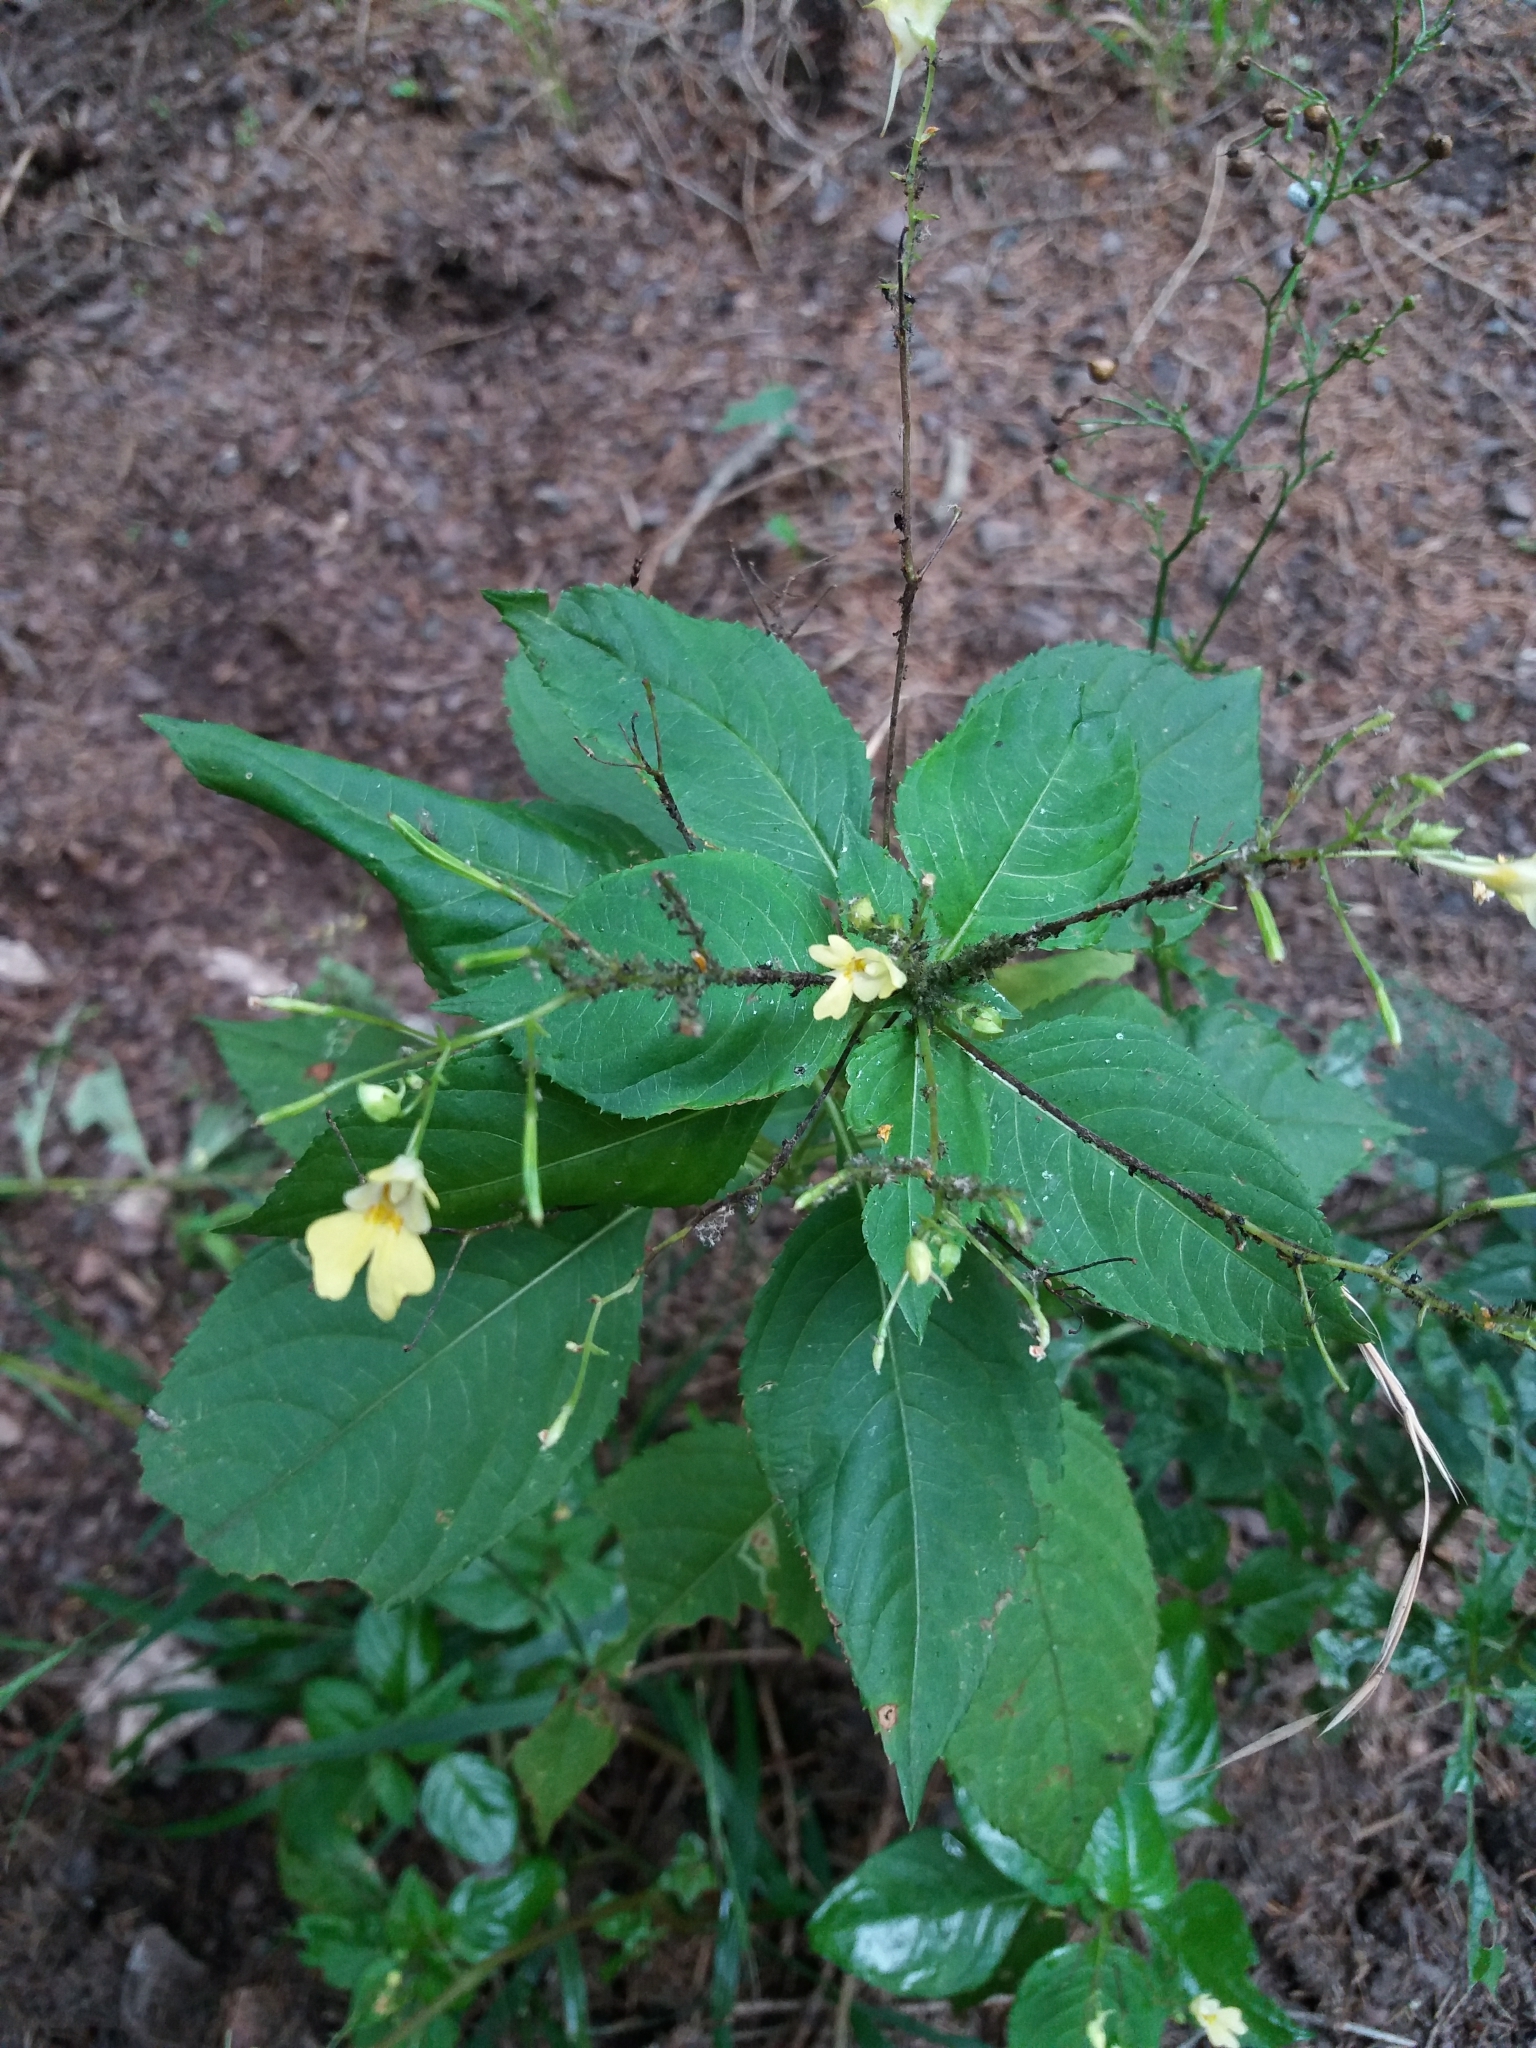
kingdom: Plantae
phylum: Tracheophyta
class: Magnoliopsida
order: Ericales
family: Balsaminaceae
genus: Impatiens
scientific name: Impatiens parviflora
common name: Small balsam
